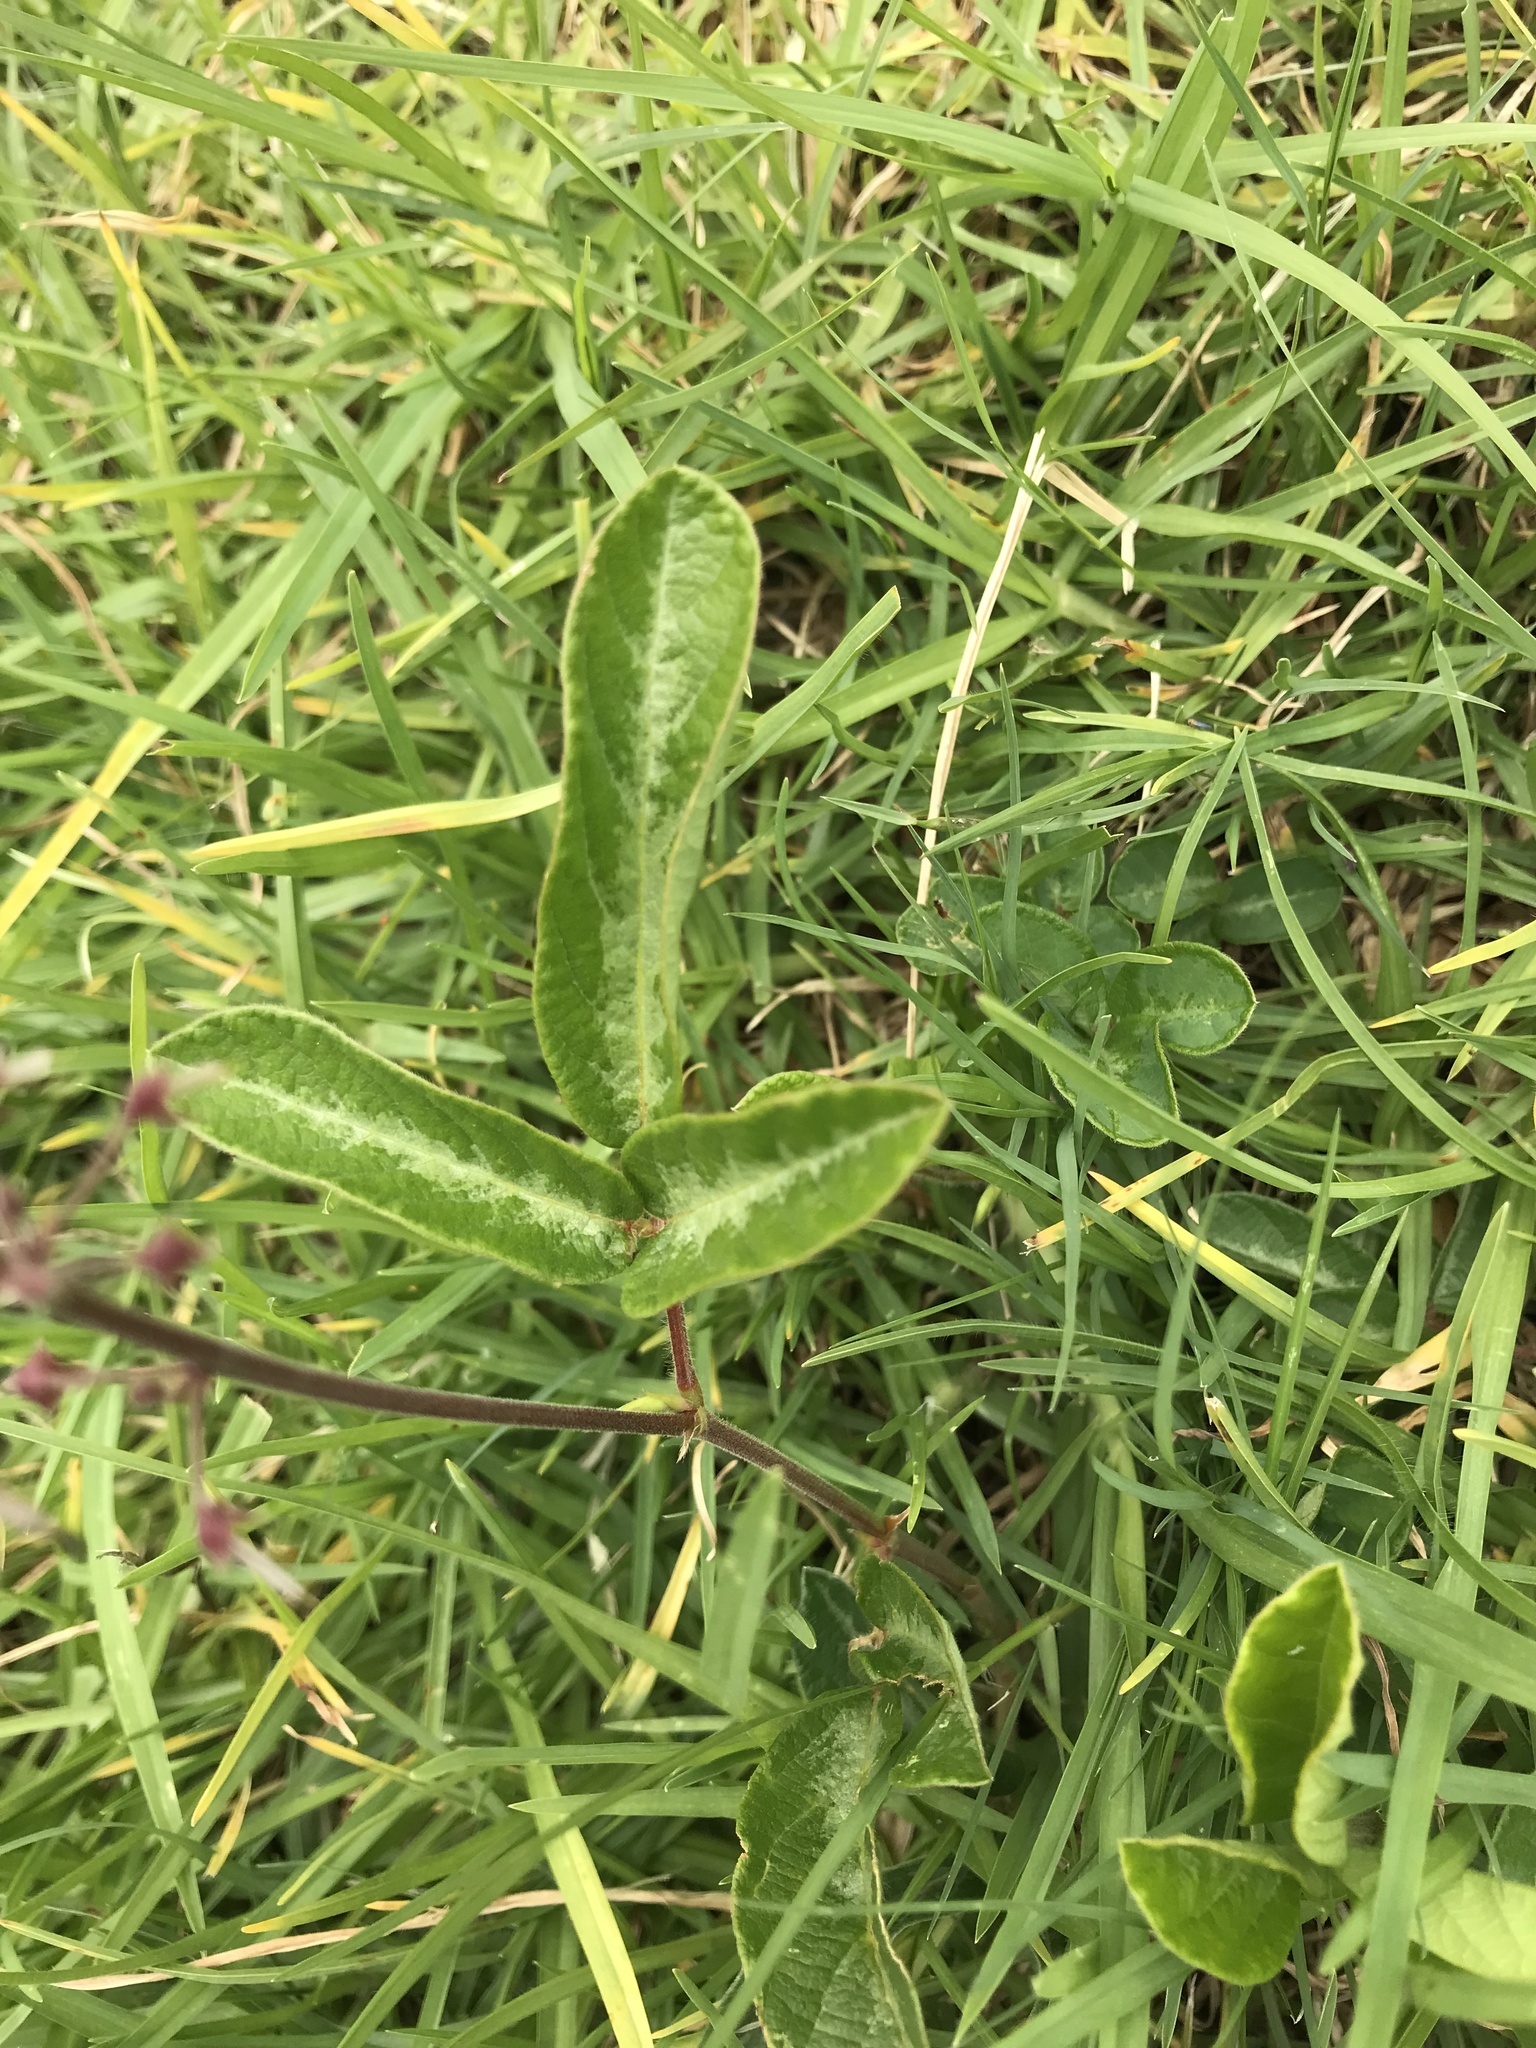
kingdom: Plantae
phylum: Tracheophyta
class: Magnoliopsida
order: Fabales
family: Fabaceae
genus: Desmodium
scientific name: Desmodium incanum
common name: Tickclover
